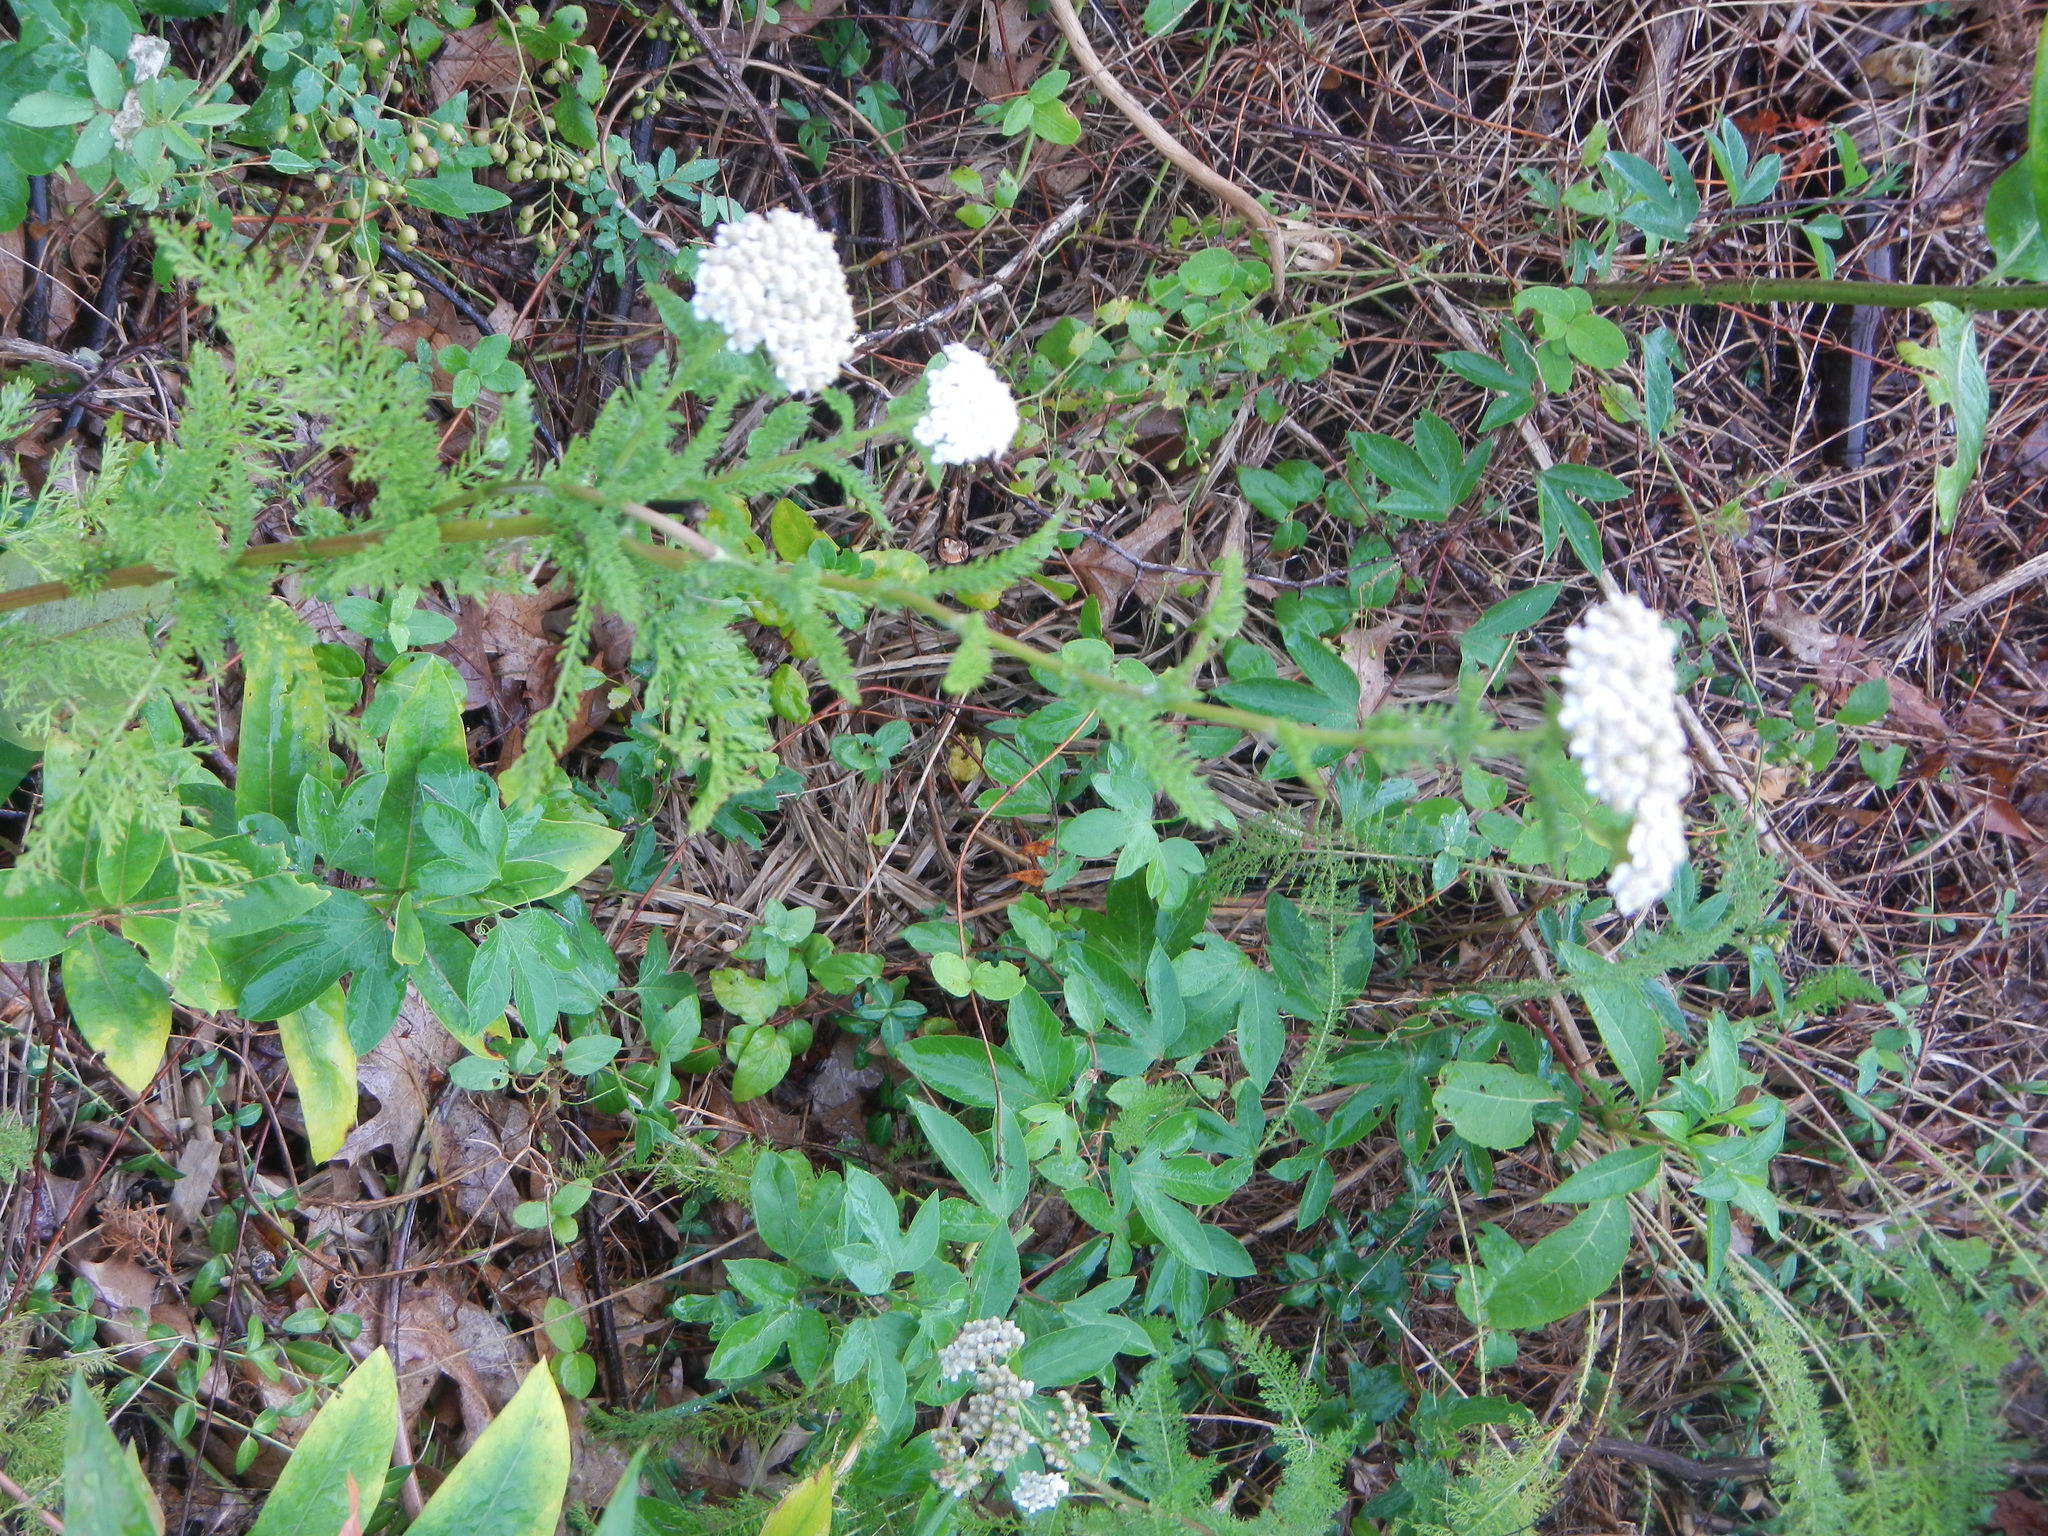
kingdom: Plantae
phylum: Tracheophyta
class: Magnoliopsida
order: Asterales
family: Asteraceae
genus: Achillea
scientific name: Achillea millefolium
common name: Yarrow
